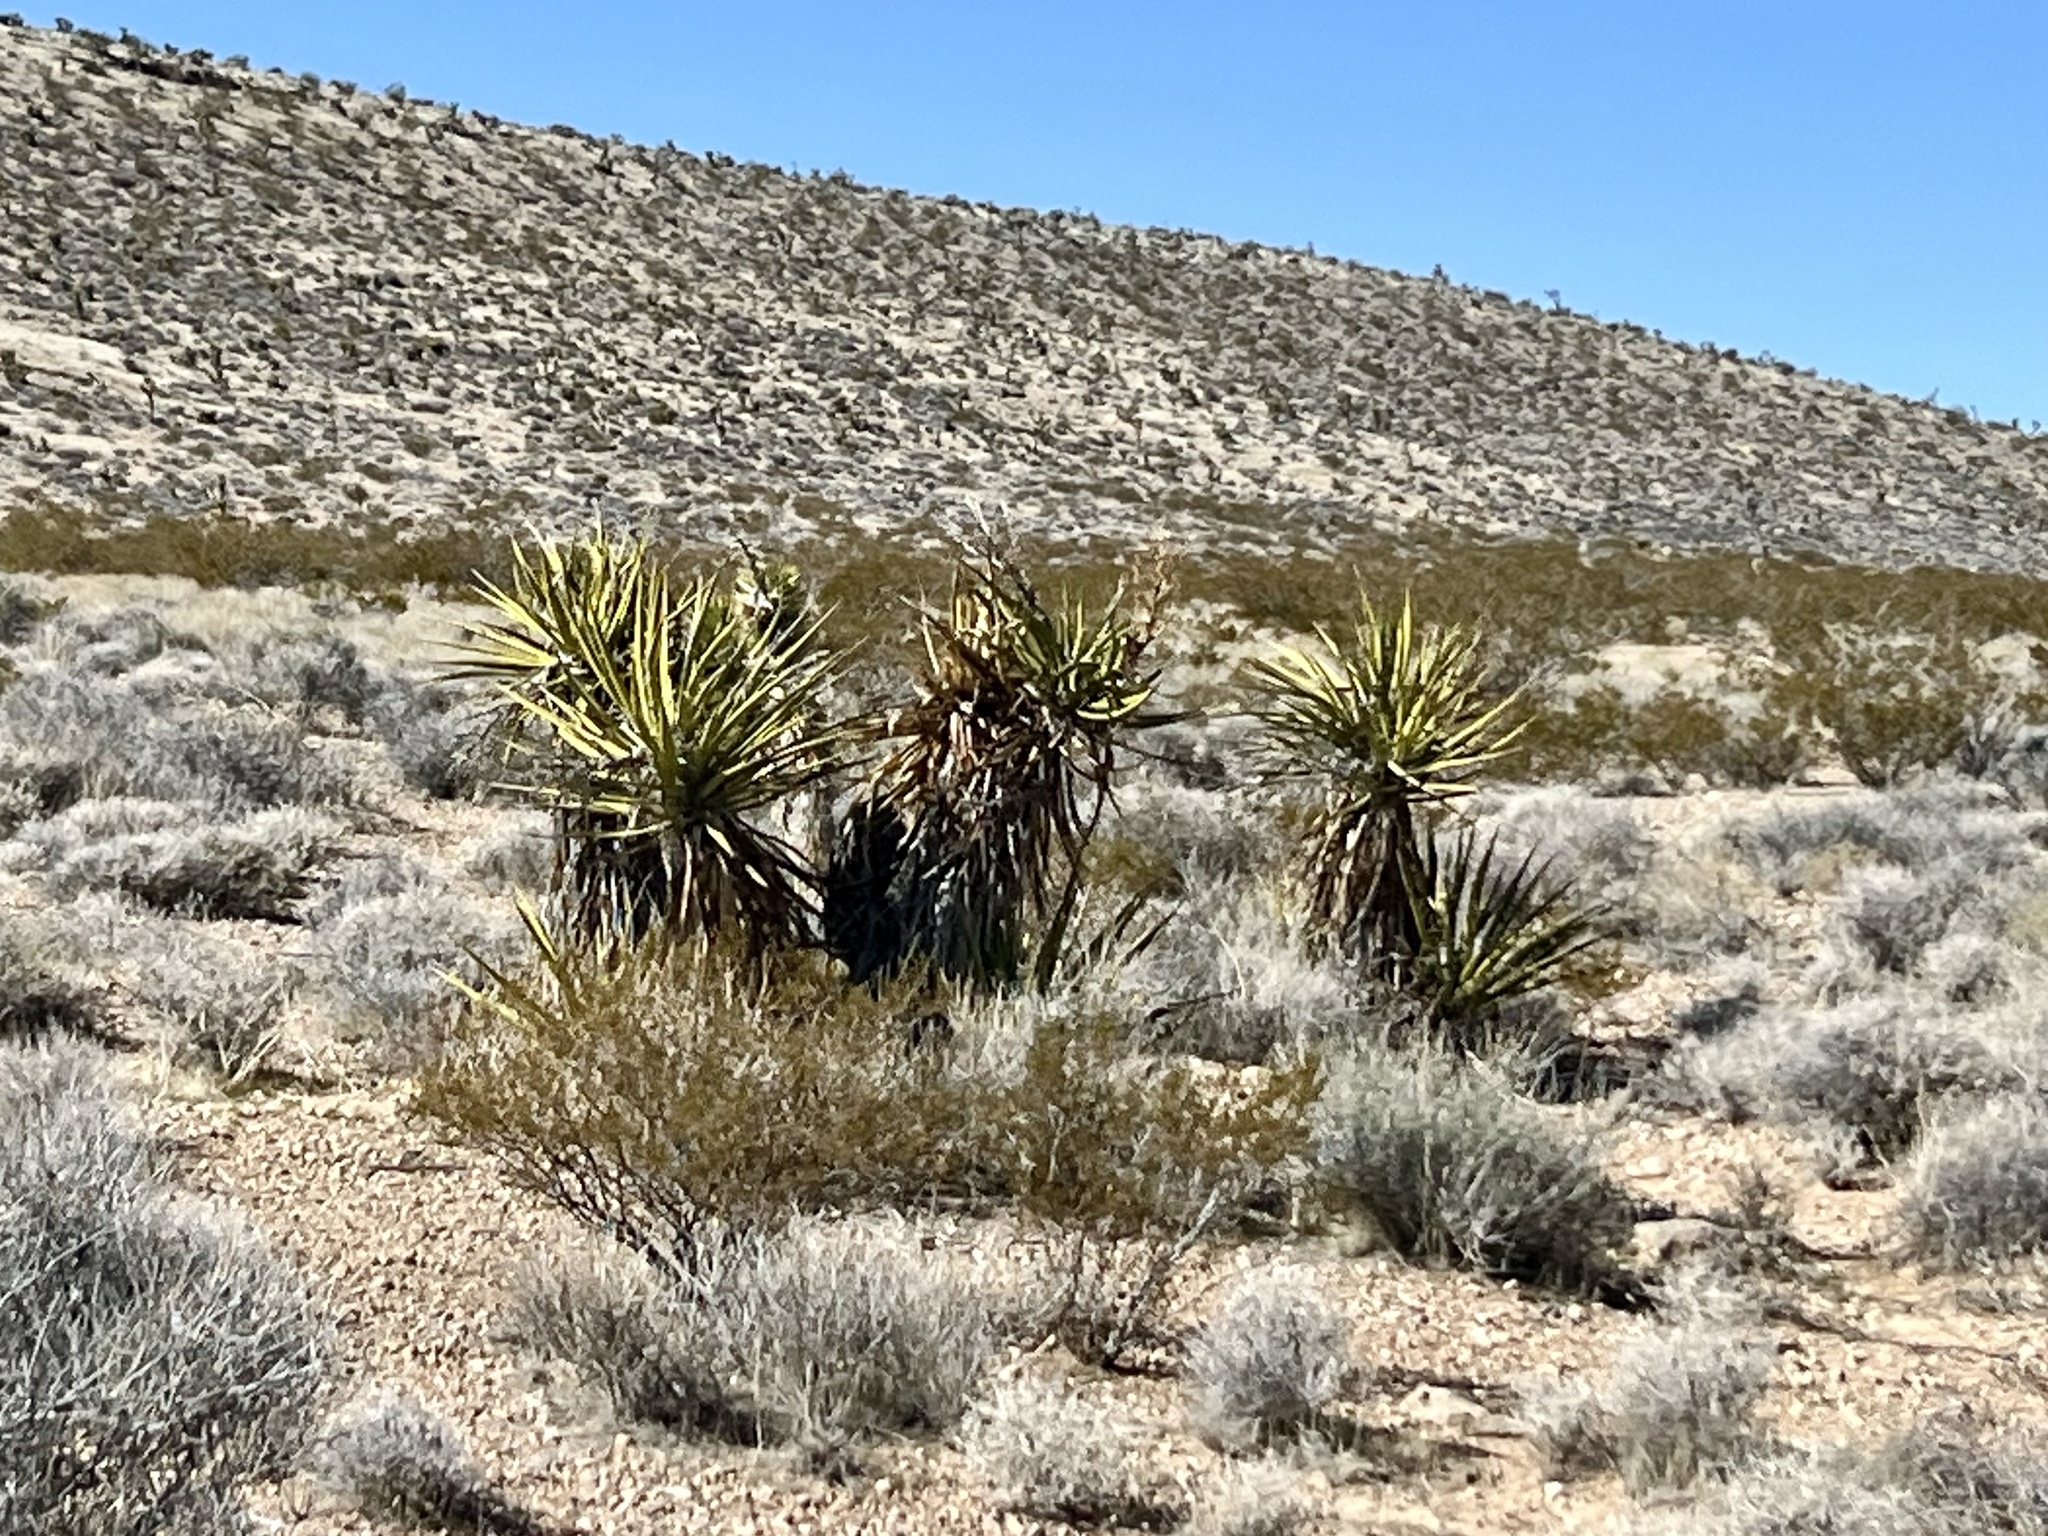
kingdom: Plantae
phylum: Tracheophyta
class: Liliopsida
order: Asparagales
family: Asparagaceae
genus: Yucca
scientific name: Yucca schidigera
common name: Mojave yucca
